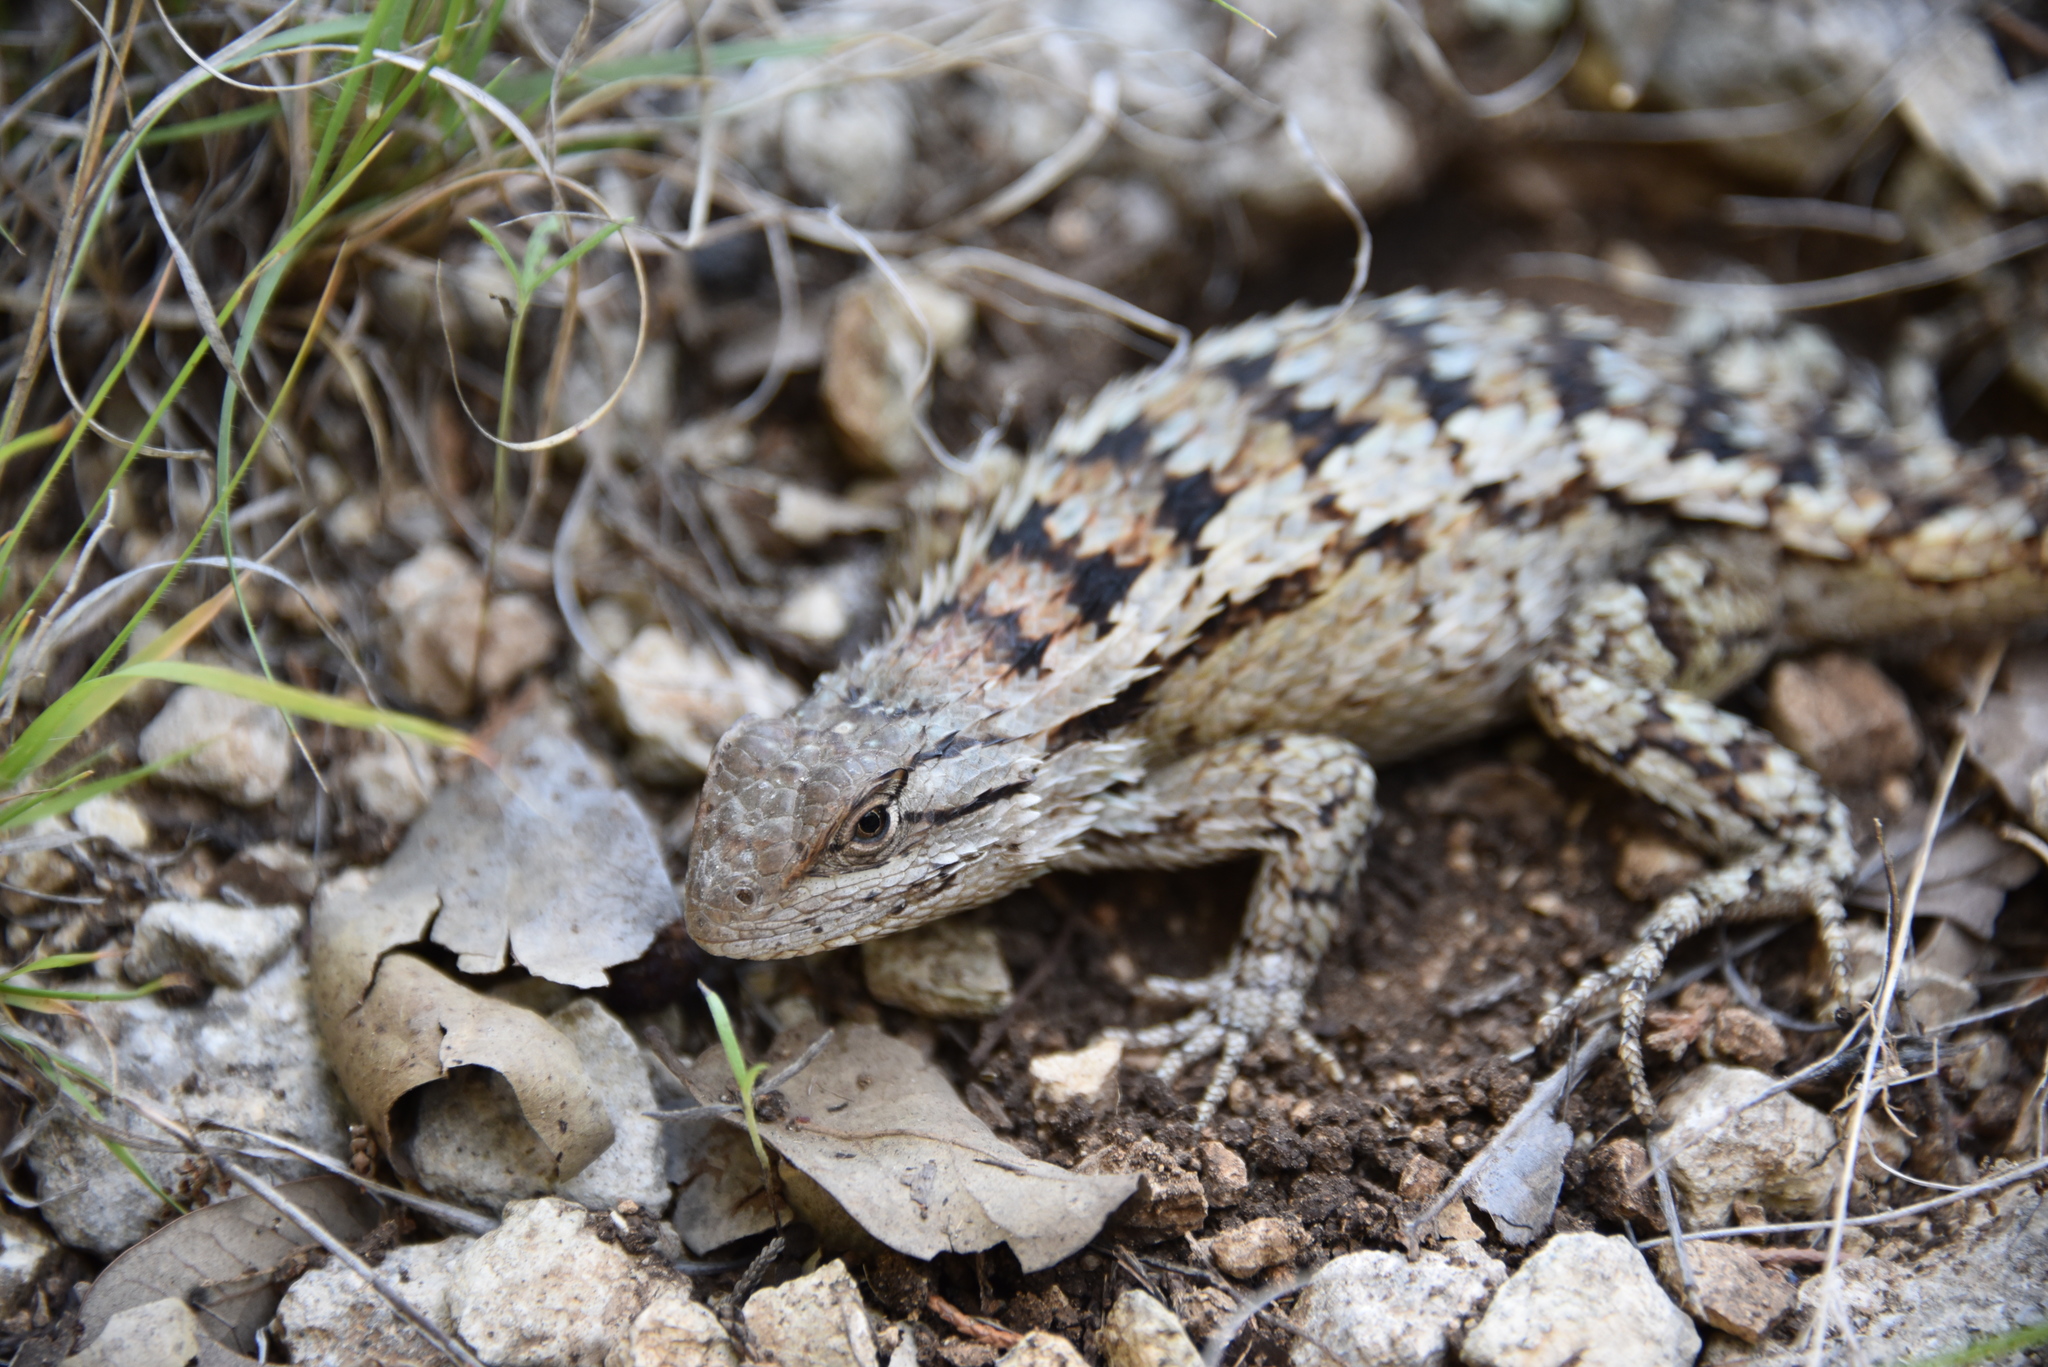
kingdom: Animalia
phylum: Chordata
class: Squamata
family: Phrynosomatidae
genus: Sceloporus
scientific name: Sceloporus olivaceus
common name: Texas spiny lizard
